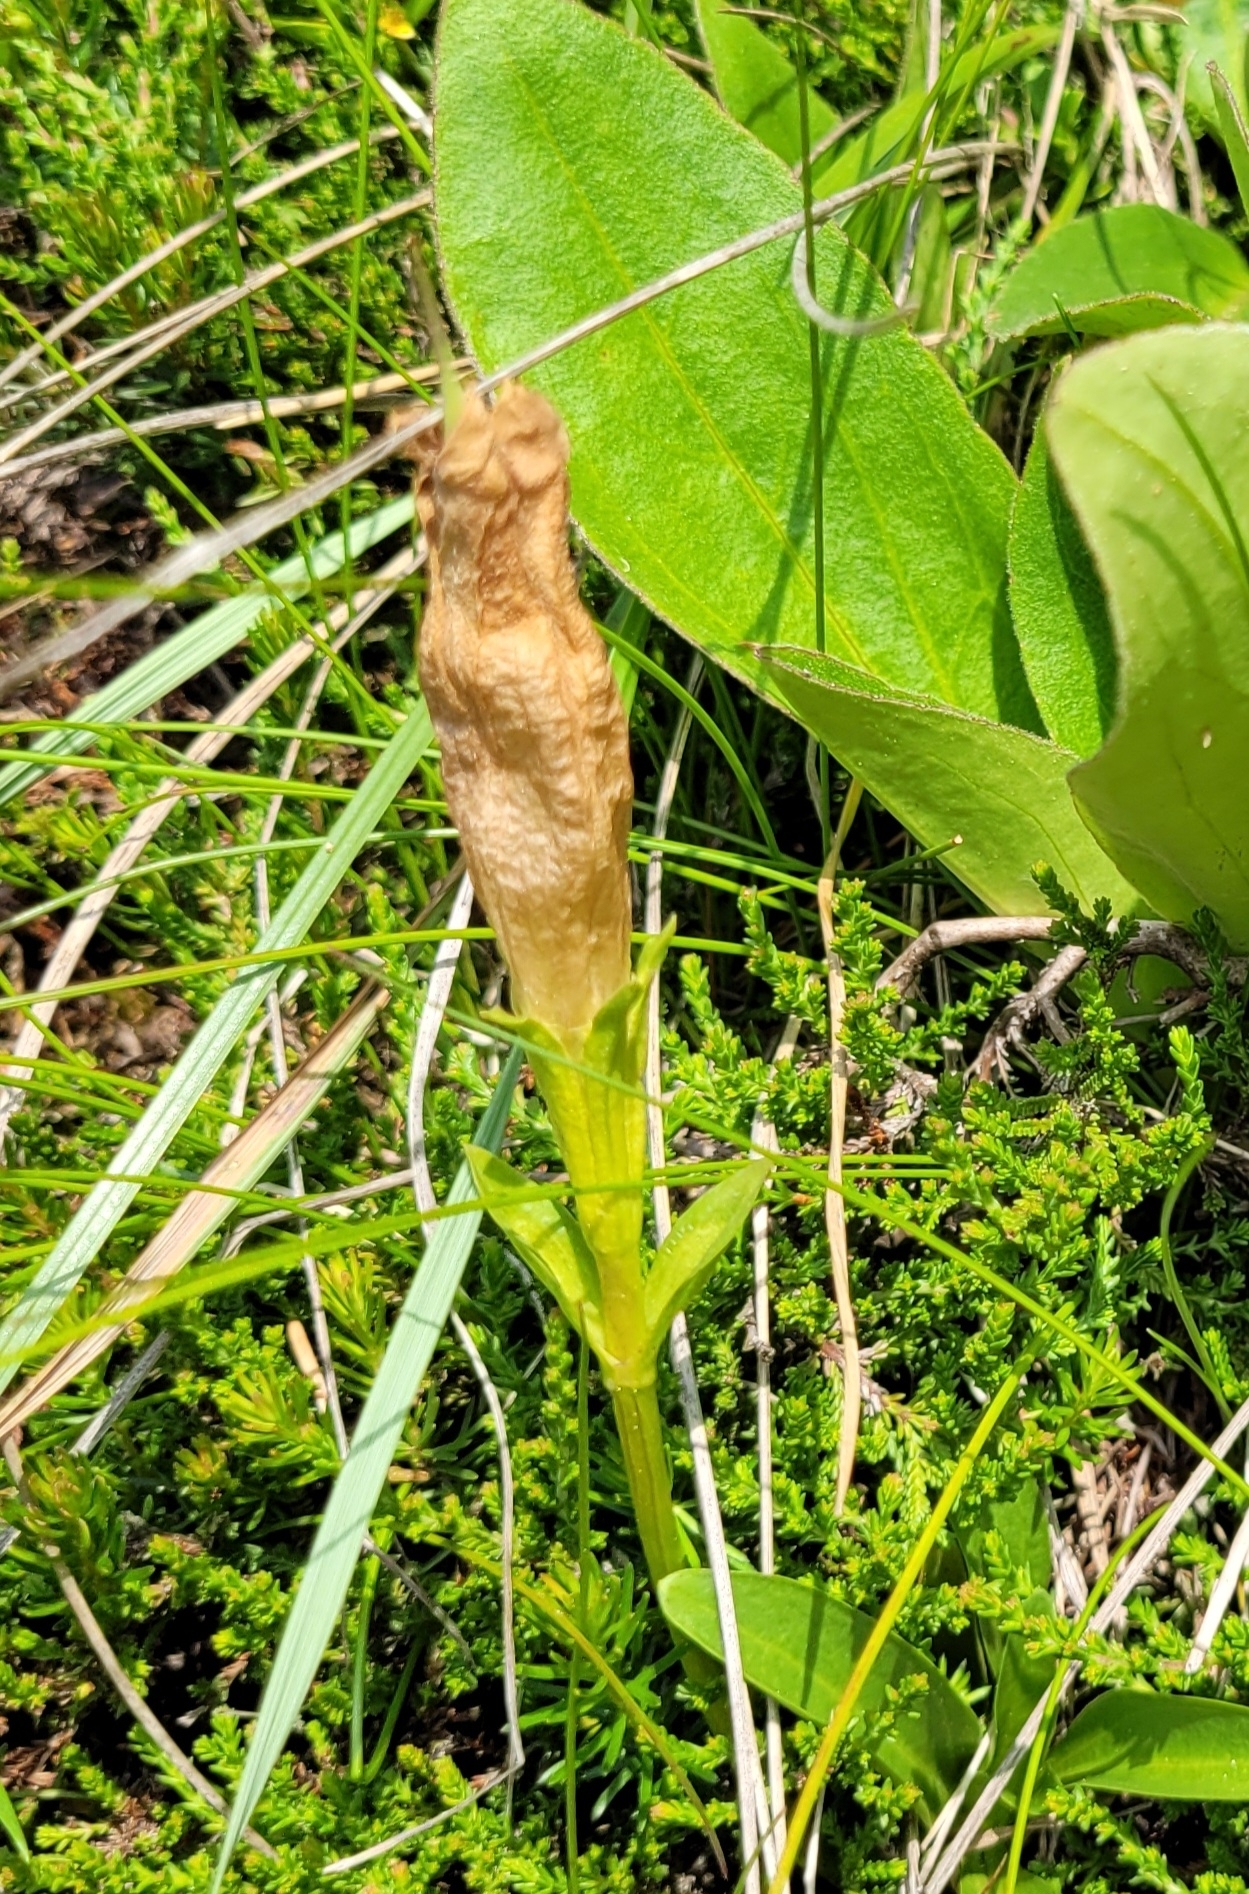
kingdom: Plantae
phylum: Tracheophyta
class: Magnoliopsida
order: Gentianales
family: Gentianaceae
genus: Gentiana
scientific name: Gentiana acaulis
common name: Trumpet gentian
